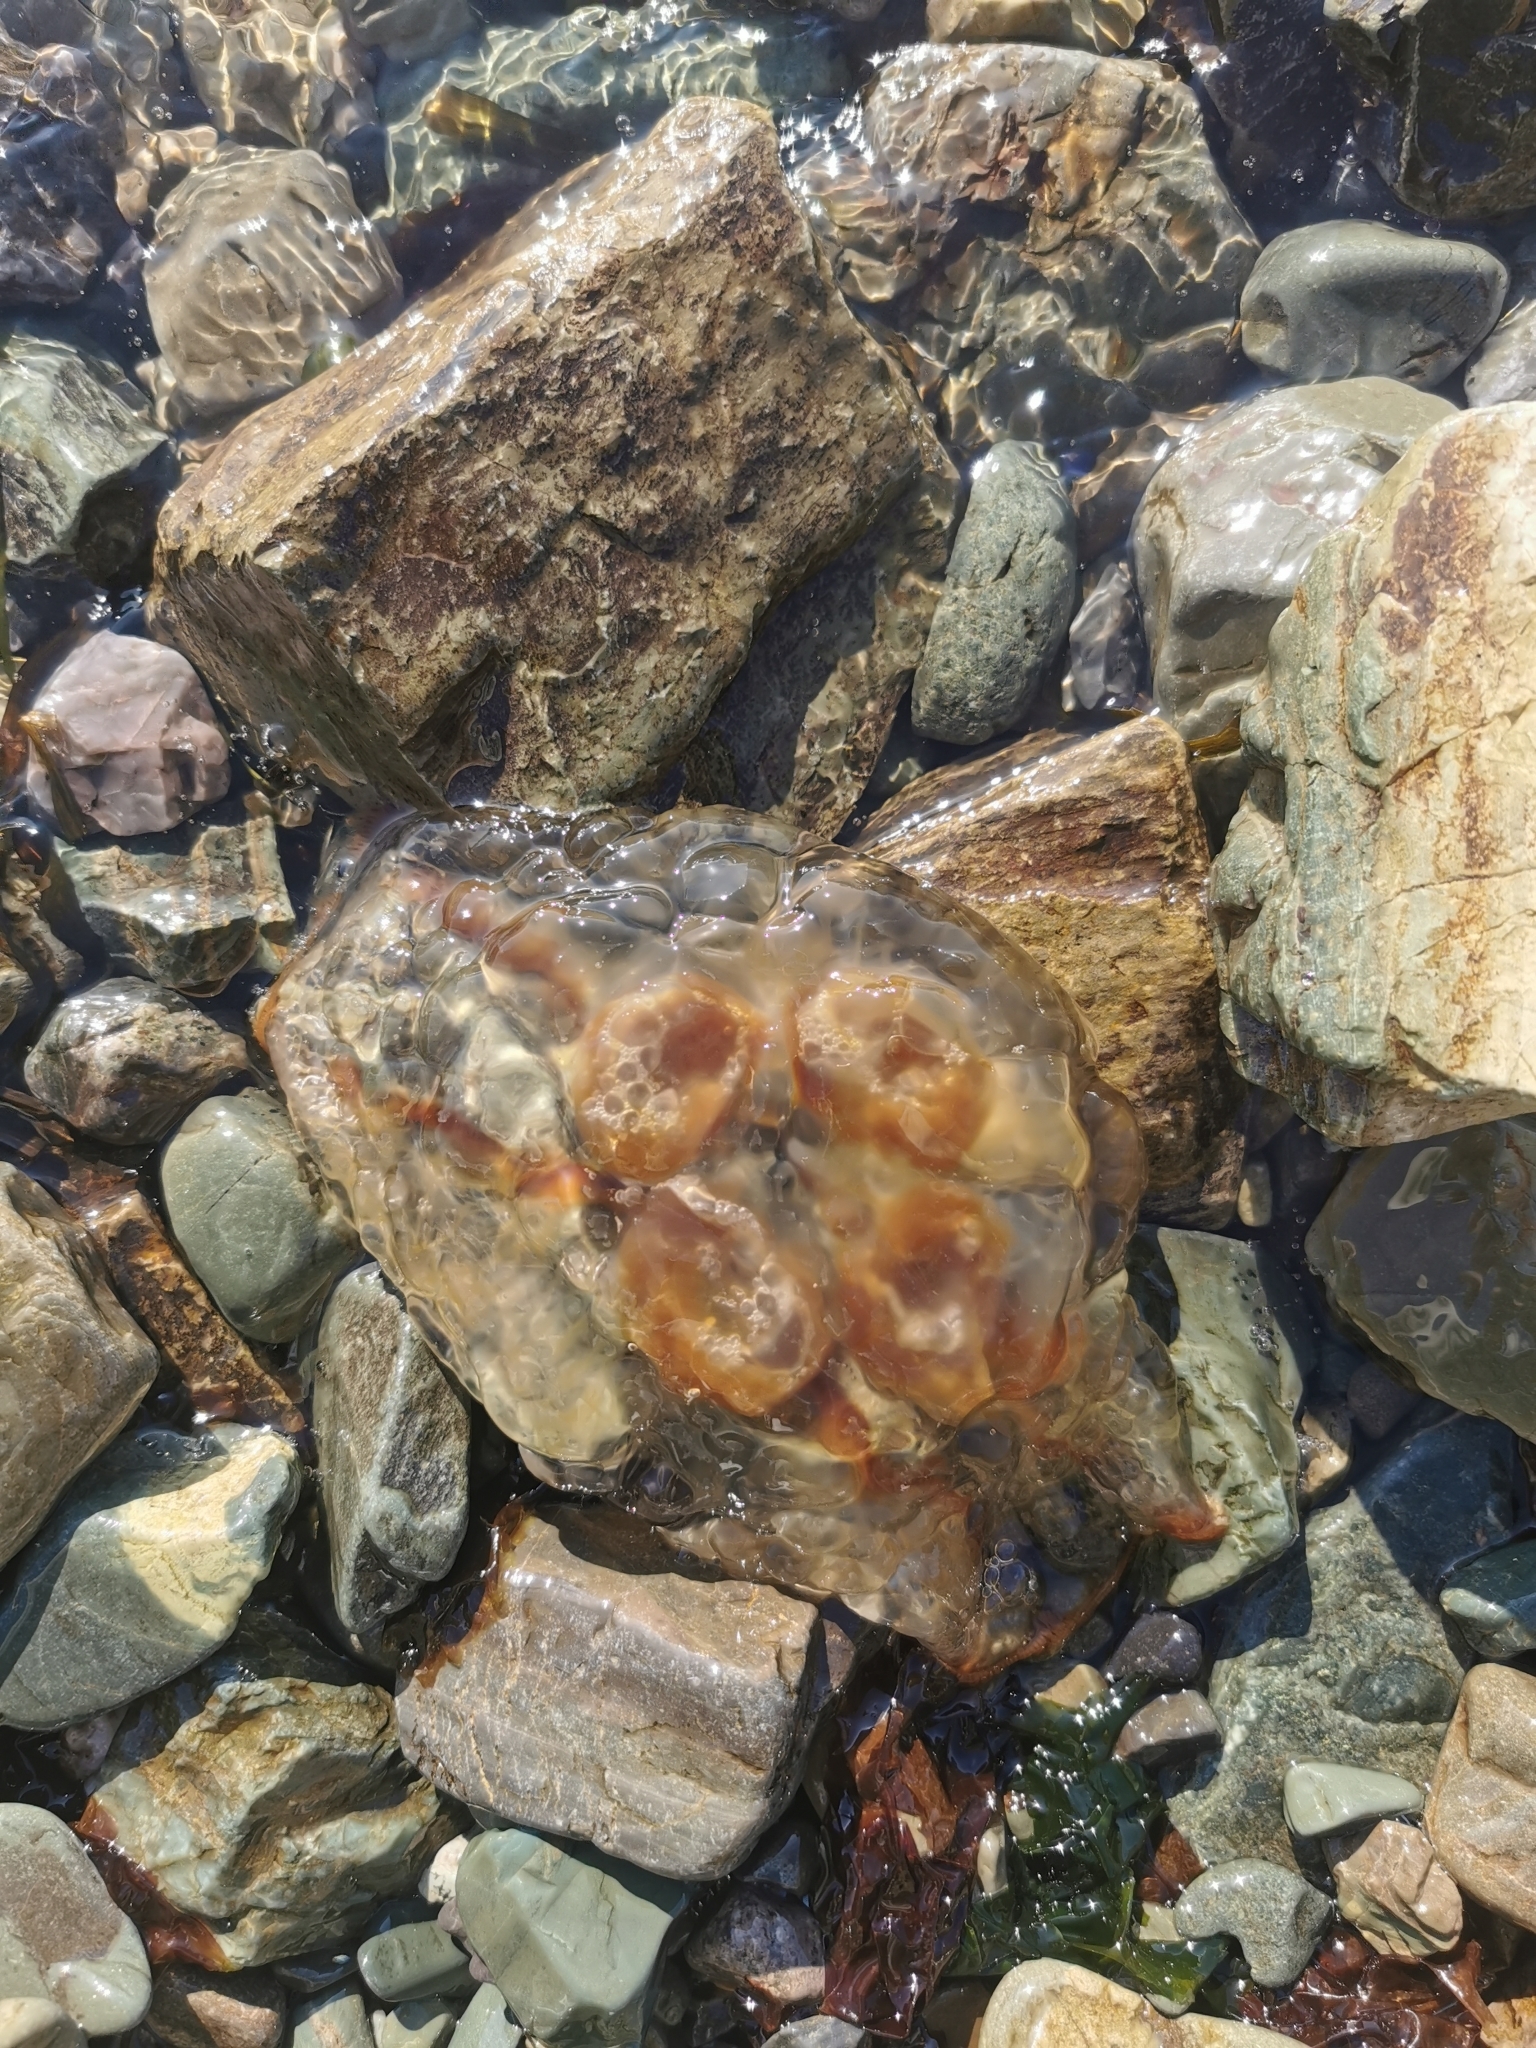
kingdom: Animalia
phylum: Cnidaria
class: Scyphozoa
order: Semaeostomeae
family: Ulmaridae
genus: Aurelia
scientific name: Aurelia limbata
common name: Brown-banded moon jelly
